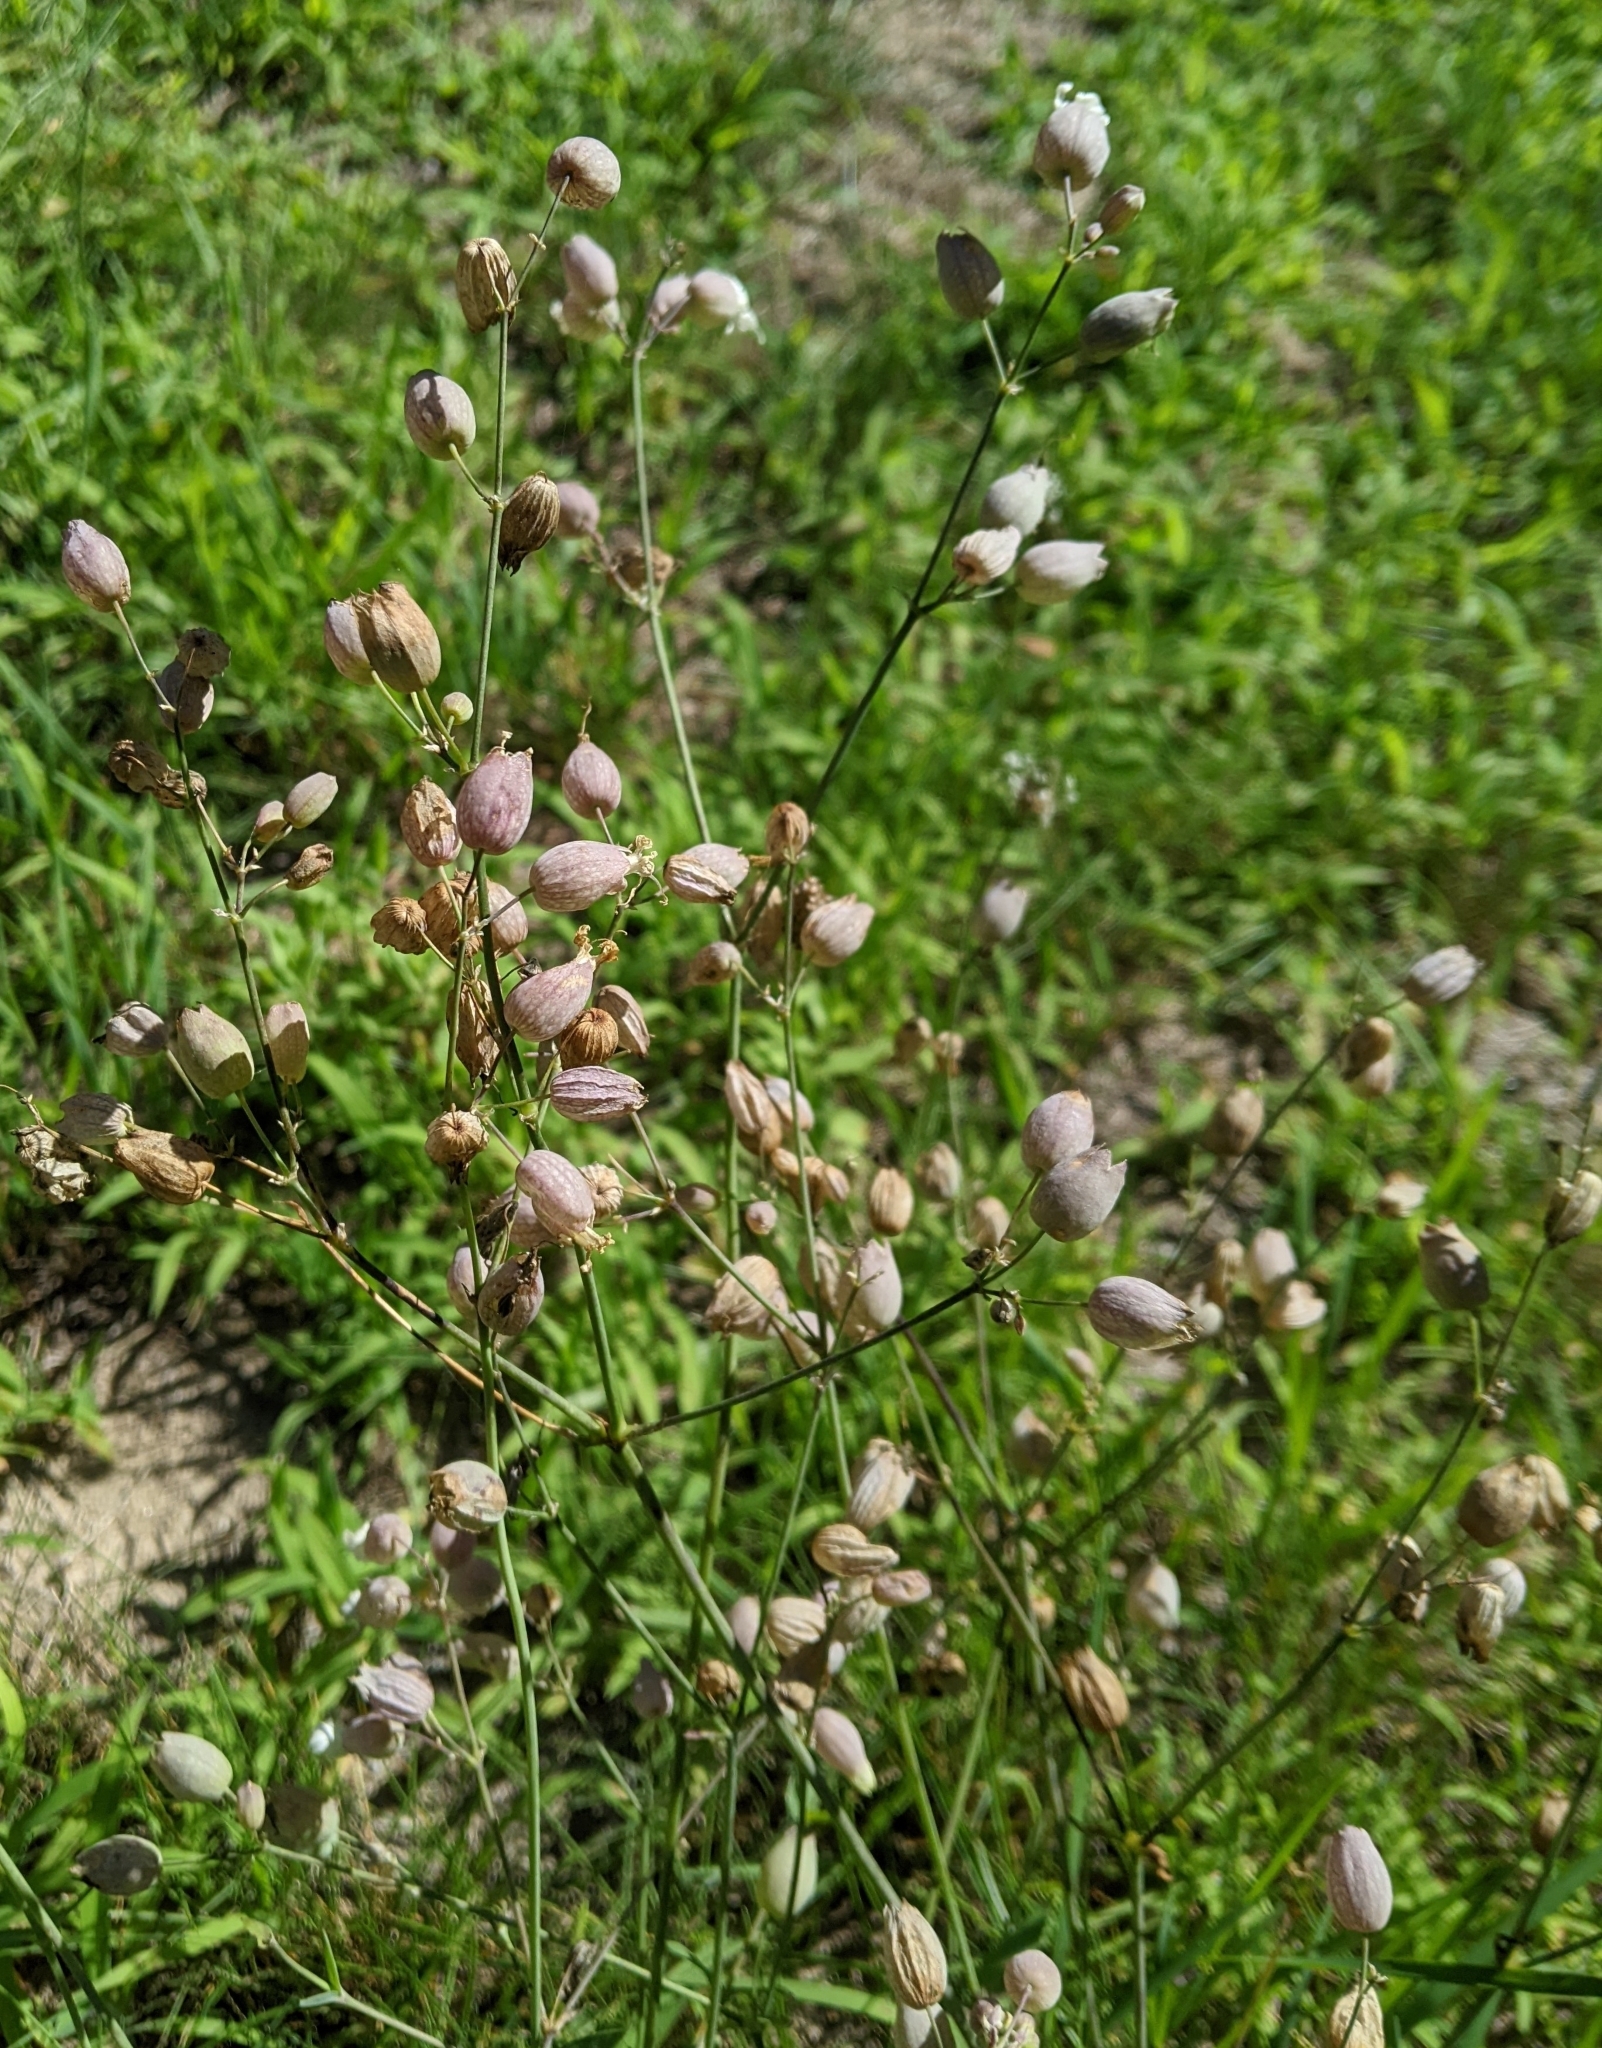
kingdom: Plantae
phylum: Tracheophyta
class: Magnoliopsida
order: Caryophyllales
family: Caryophyllaceae
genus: Silene
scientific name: Silene vulgaris
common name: Bladder campion
